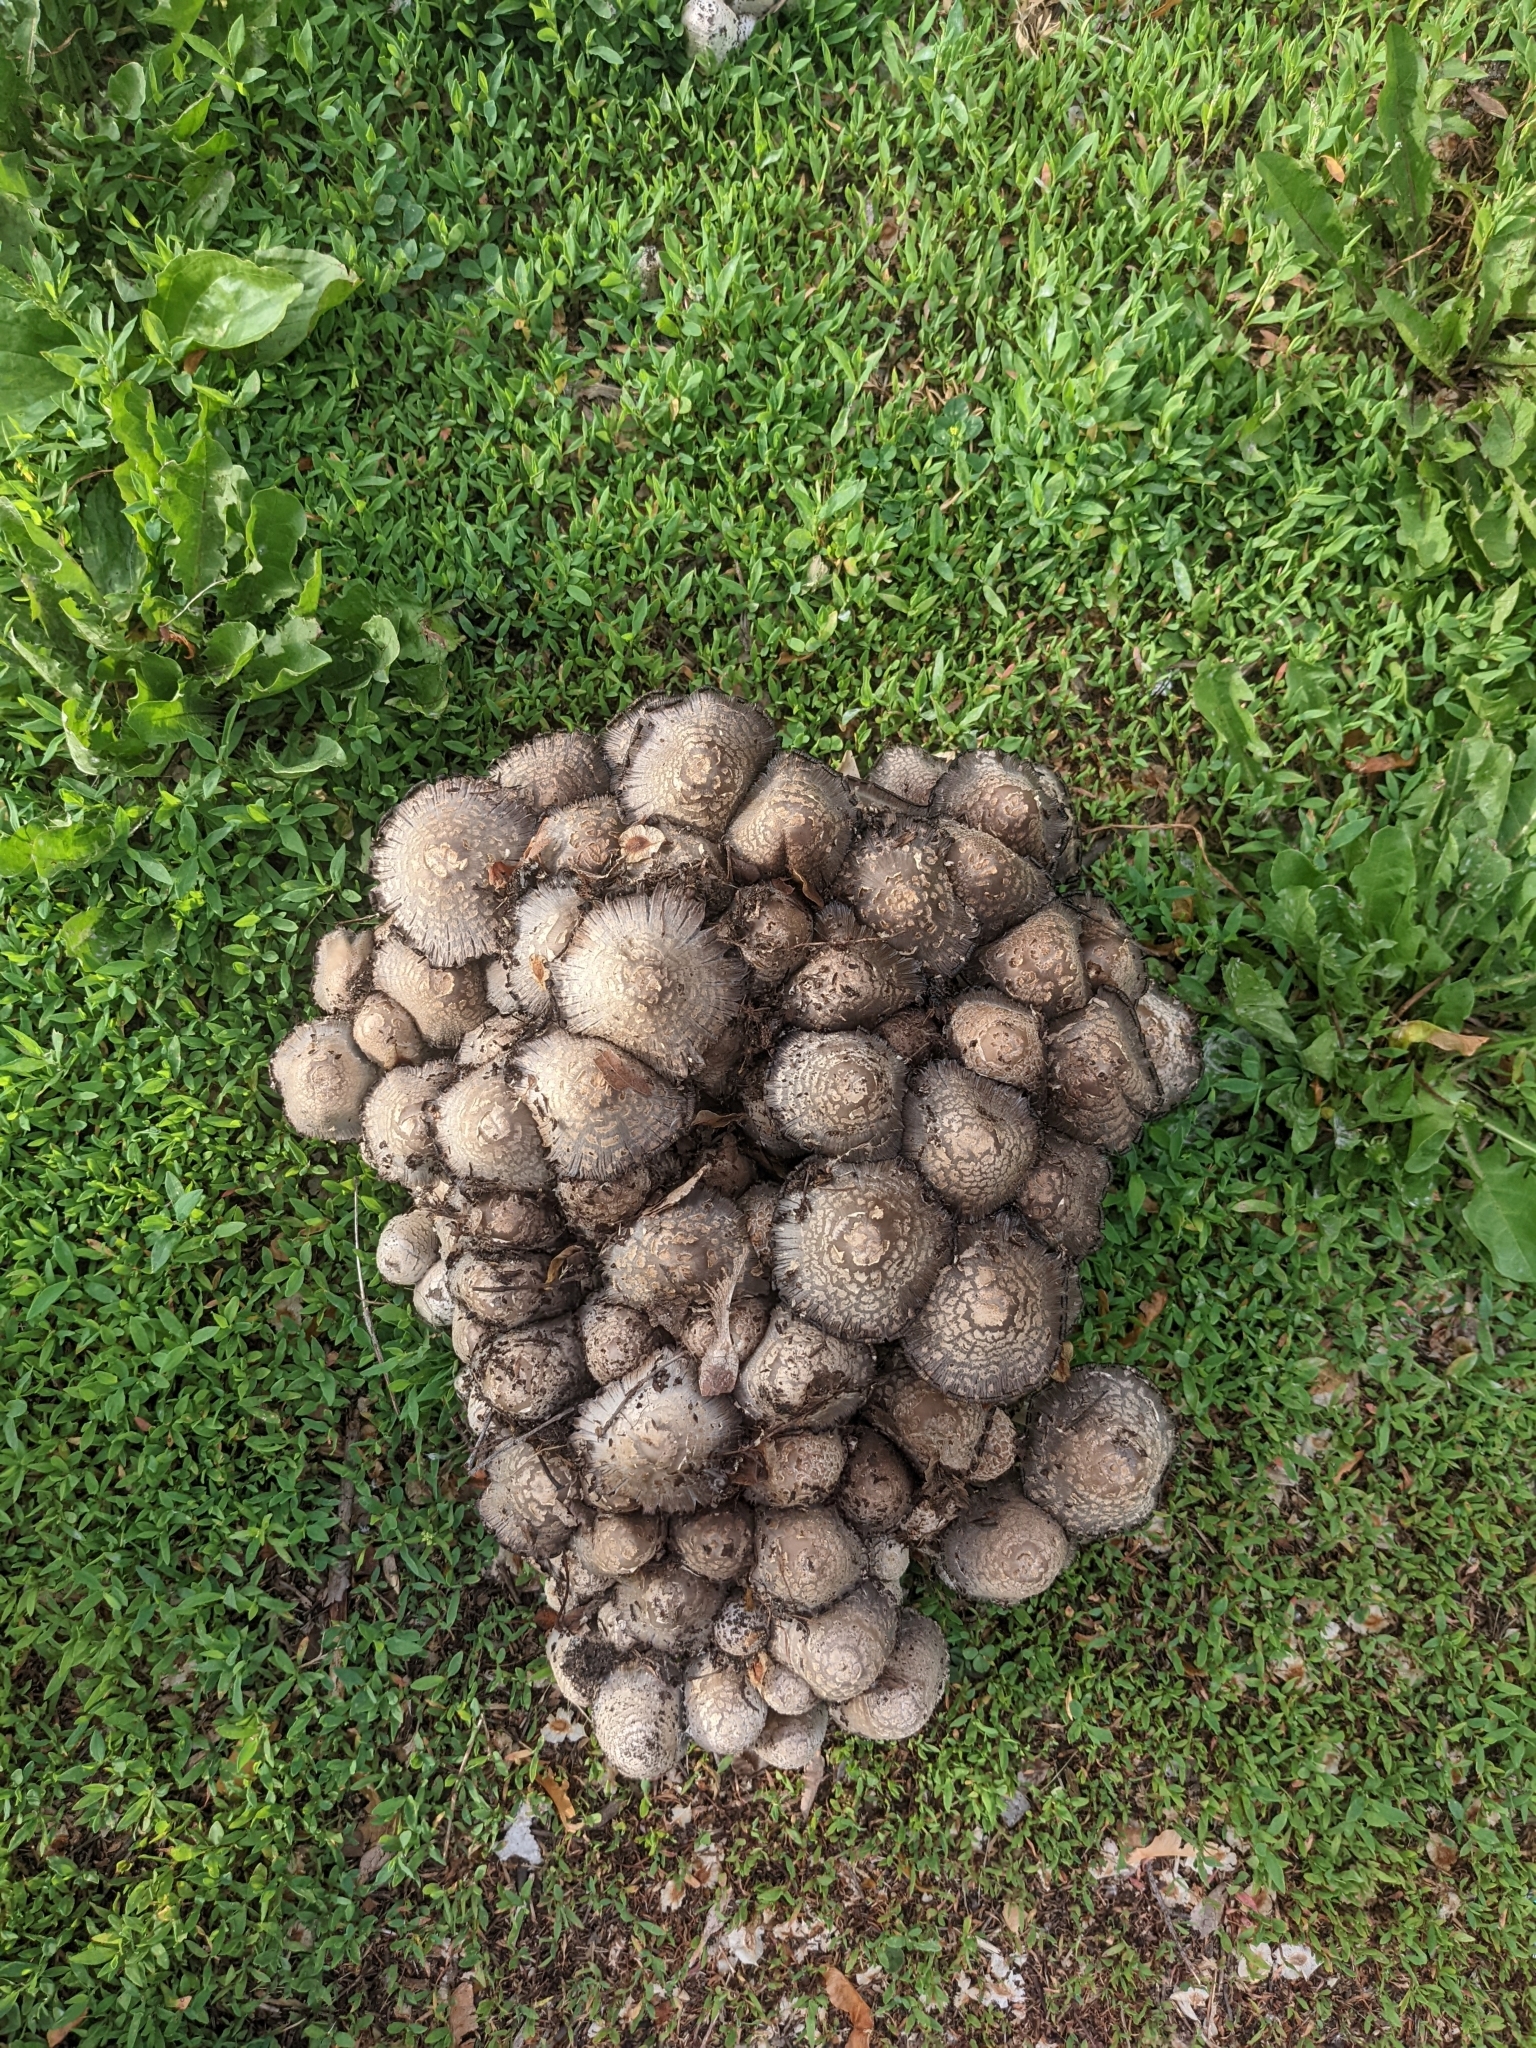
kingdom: Fungi
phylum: Basidiomycota
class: Agaricomycetes
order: Agaricales
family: Psathyrellaceae
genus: Coprinopsis
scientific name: Coprinopsis variegata
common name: Scaly ink cap
